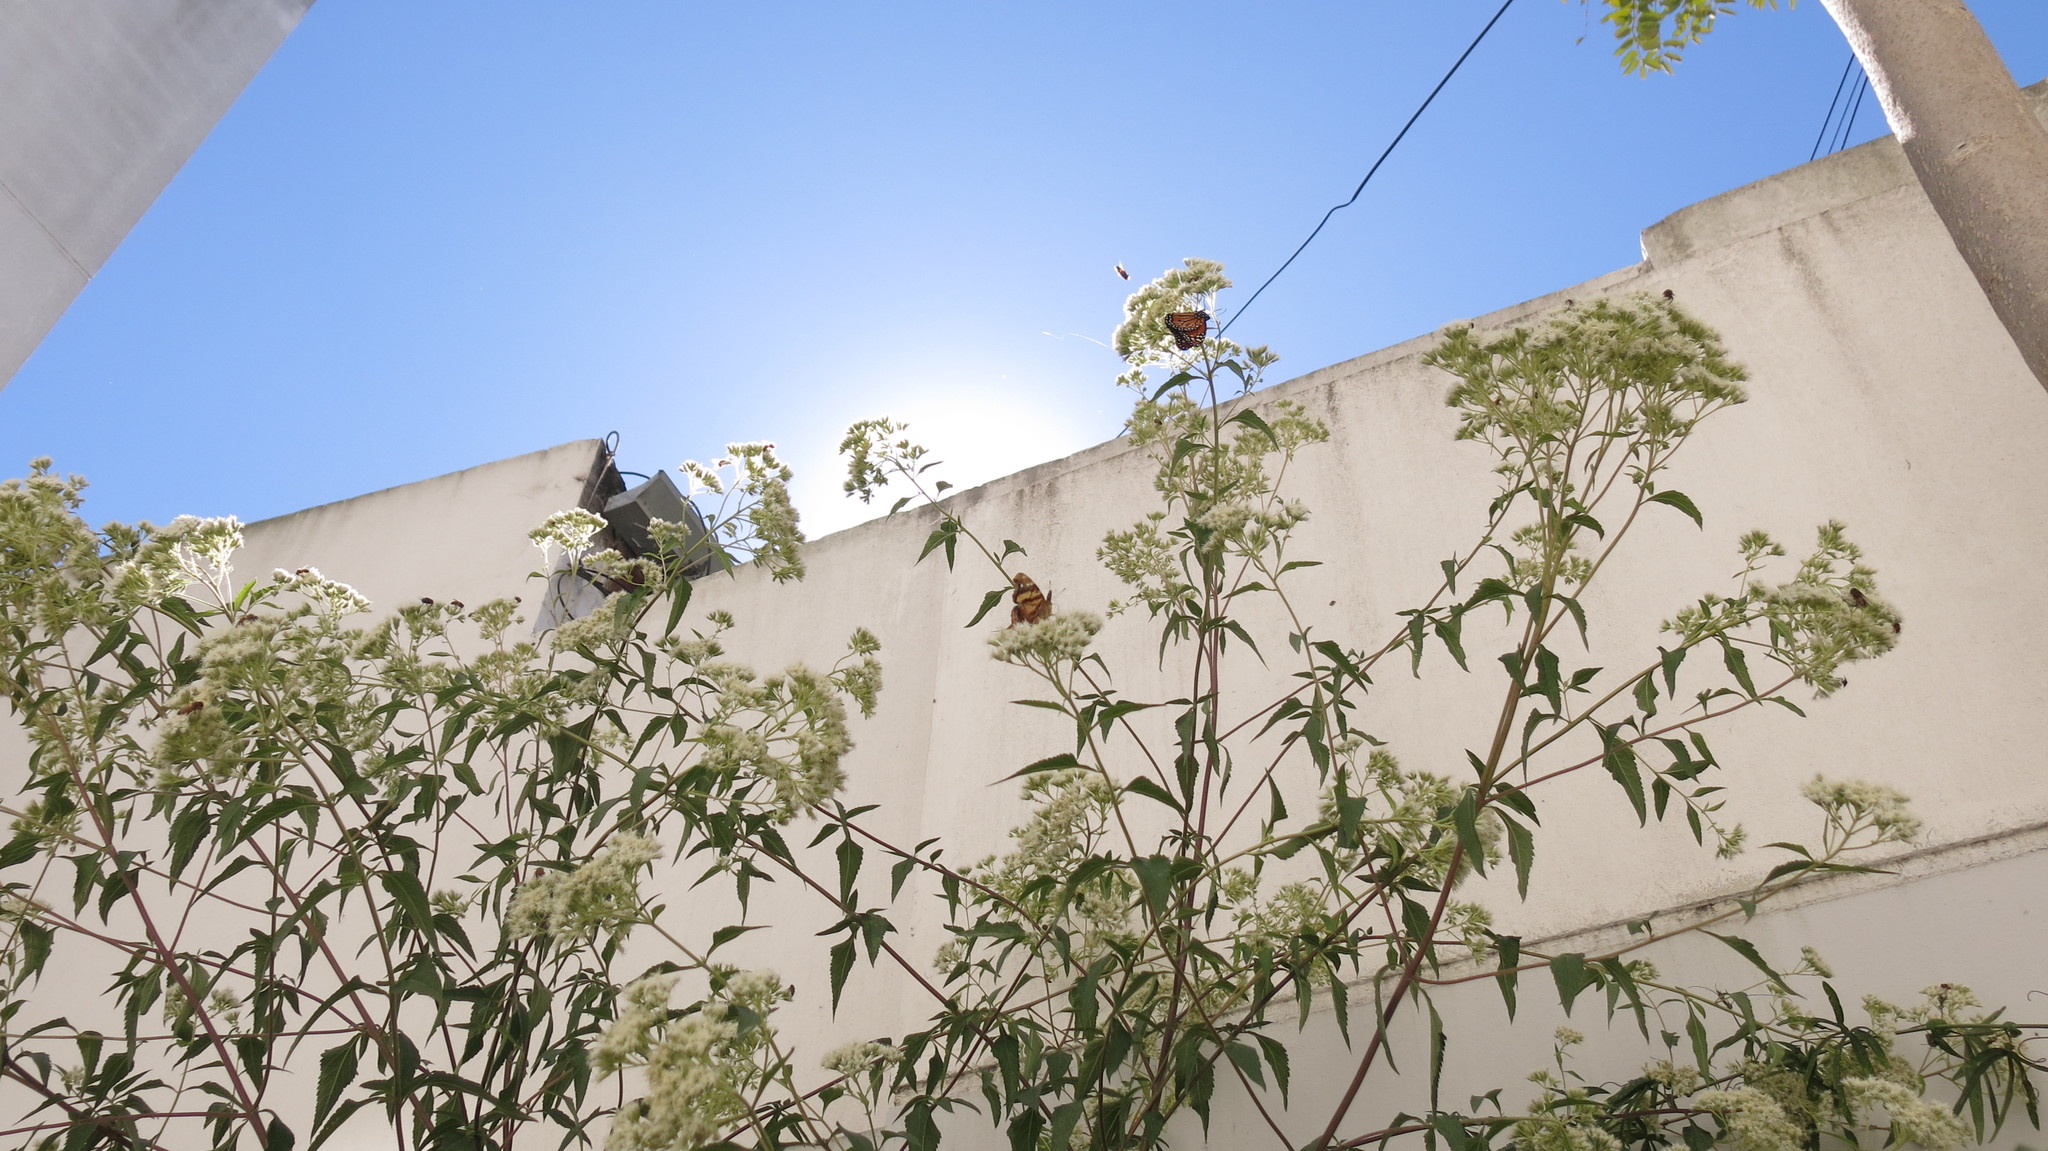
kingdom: Animalia
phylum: Arthropoda
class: Insecta
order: Lepidoptera
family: Nymphalidae
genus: Danaus
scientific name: Danaus erippus
